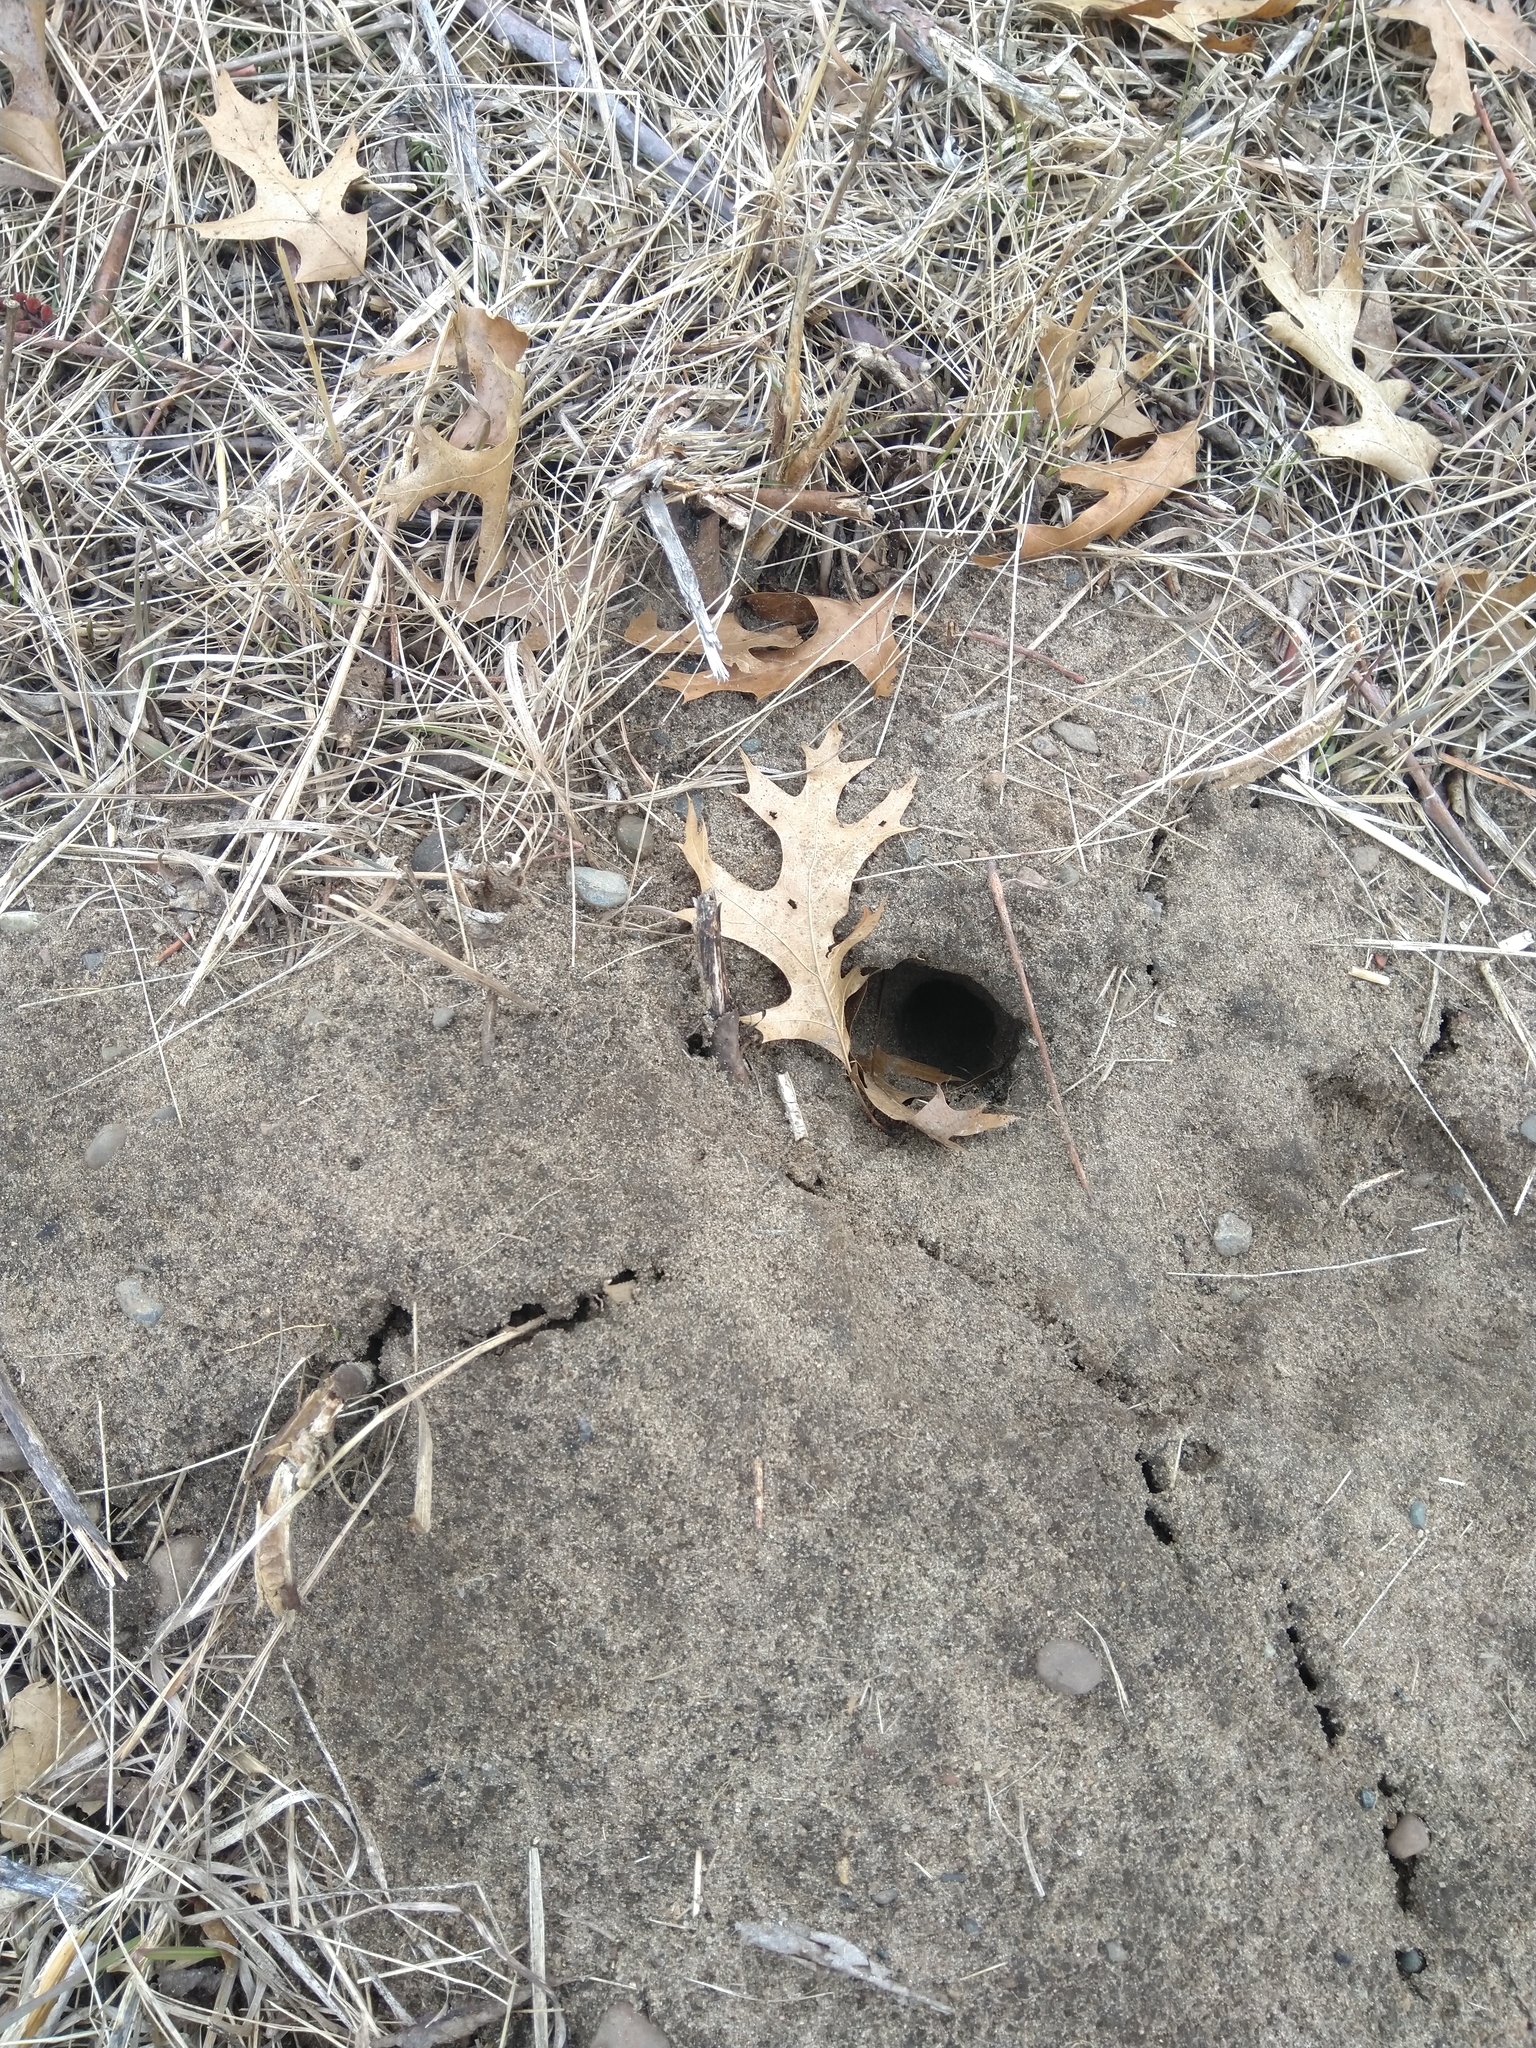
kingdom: Animalia
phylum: Chordata
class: Mammalia
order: Rodentia
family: Geomyidae
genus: Geomys
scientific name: Geomys bursarius
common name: Plains pocket gopher
